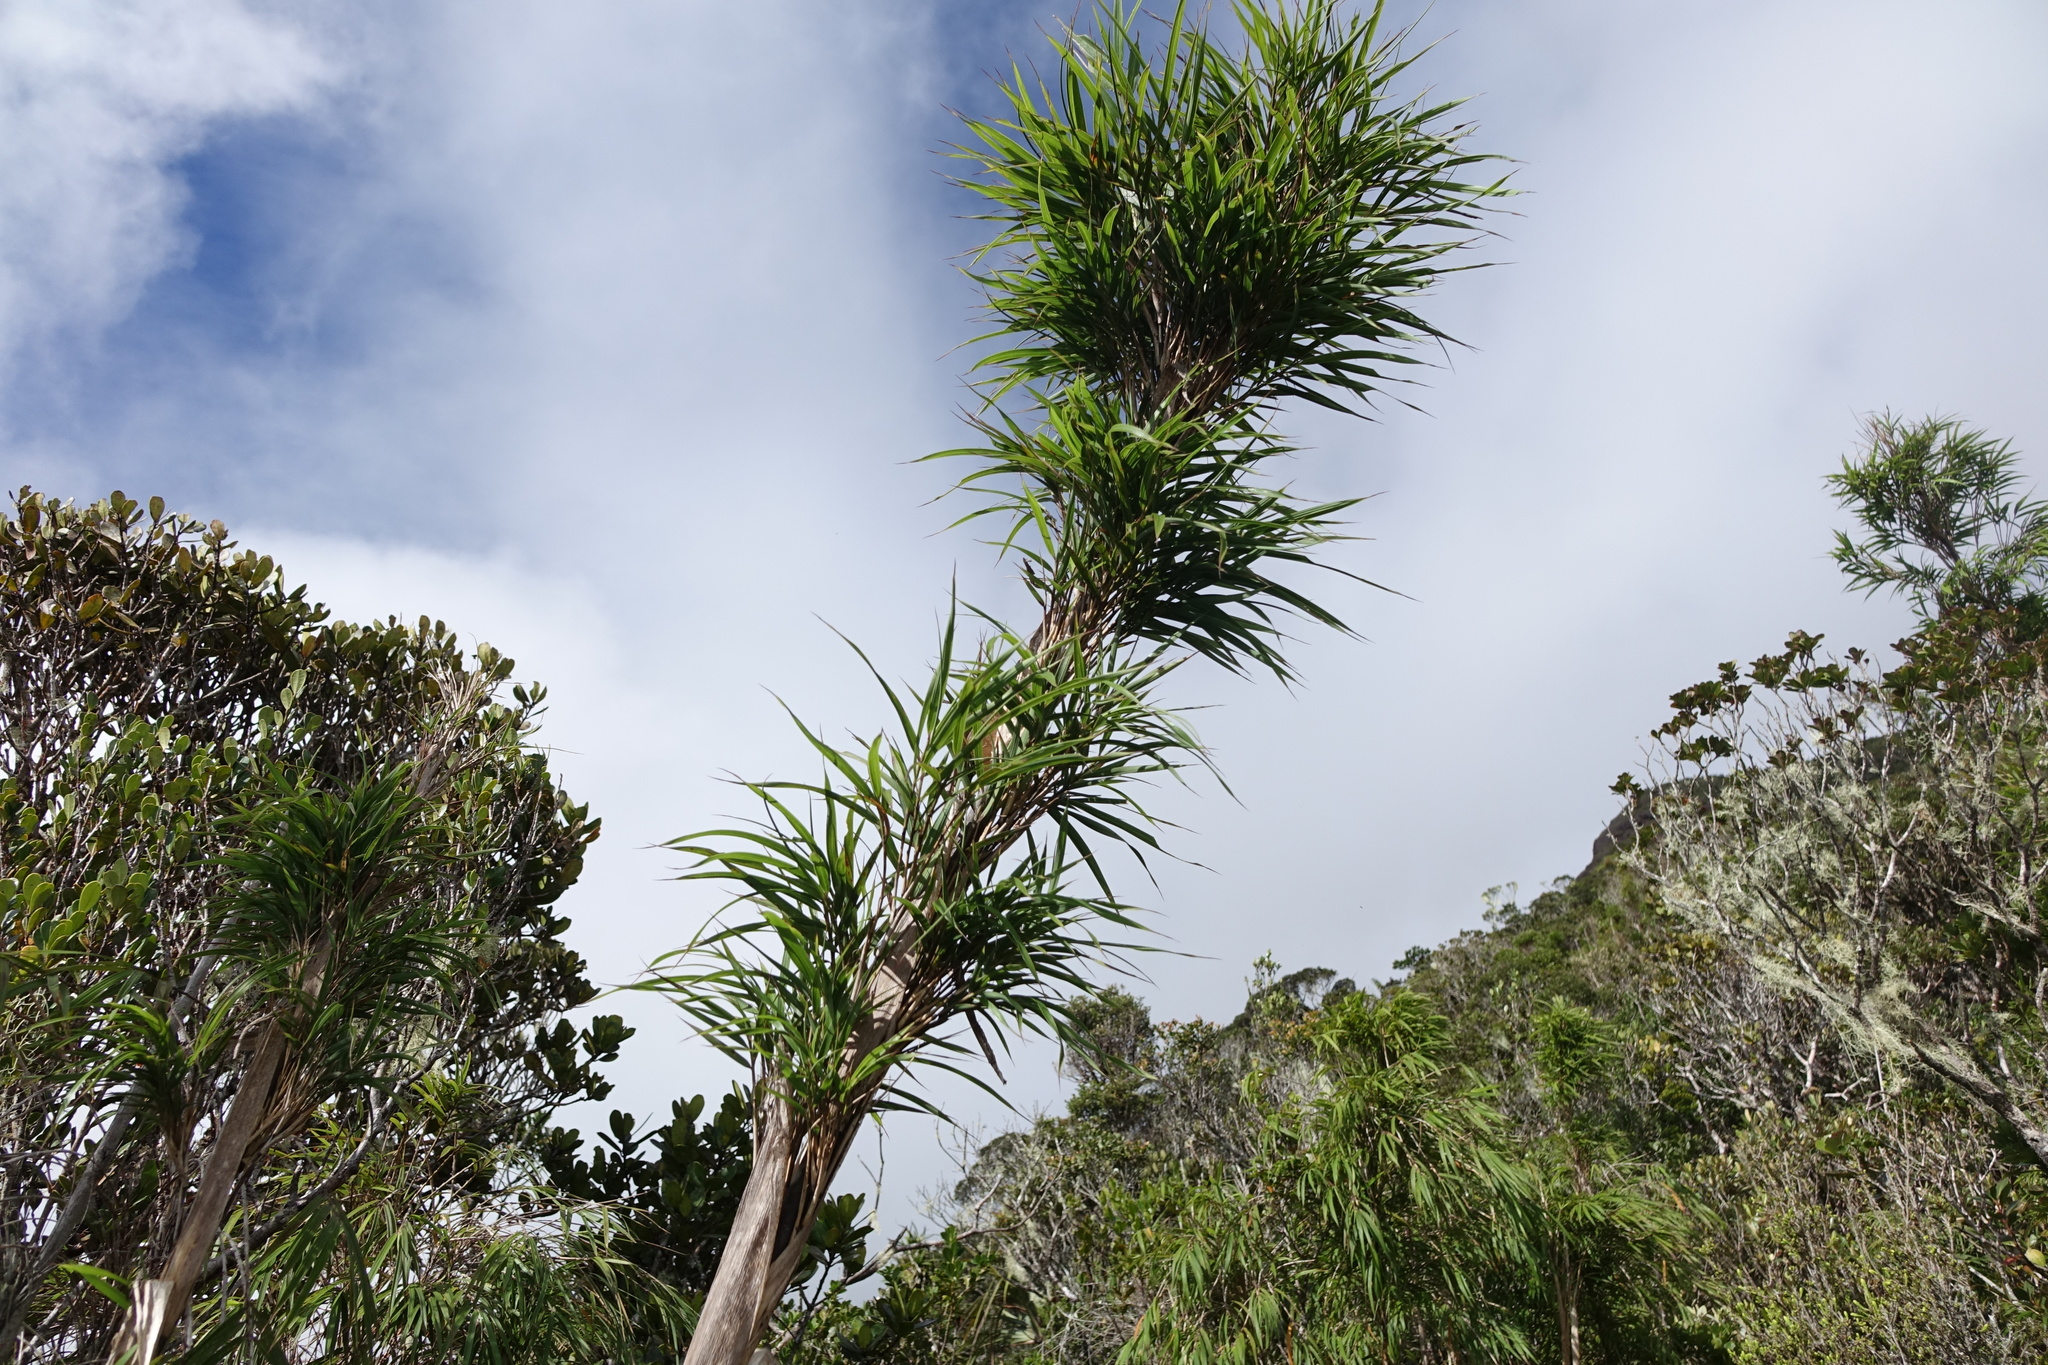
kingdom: Plantae
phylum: Tracheophyta
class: Liliopsida
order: Poales
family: Poaceae
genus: Oldeania
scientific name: Oldeania madagascariensis
